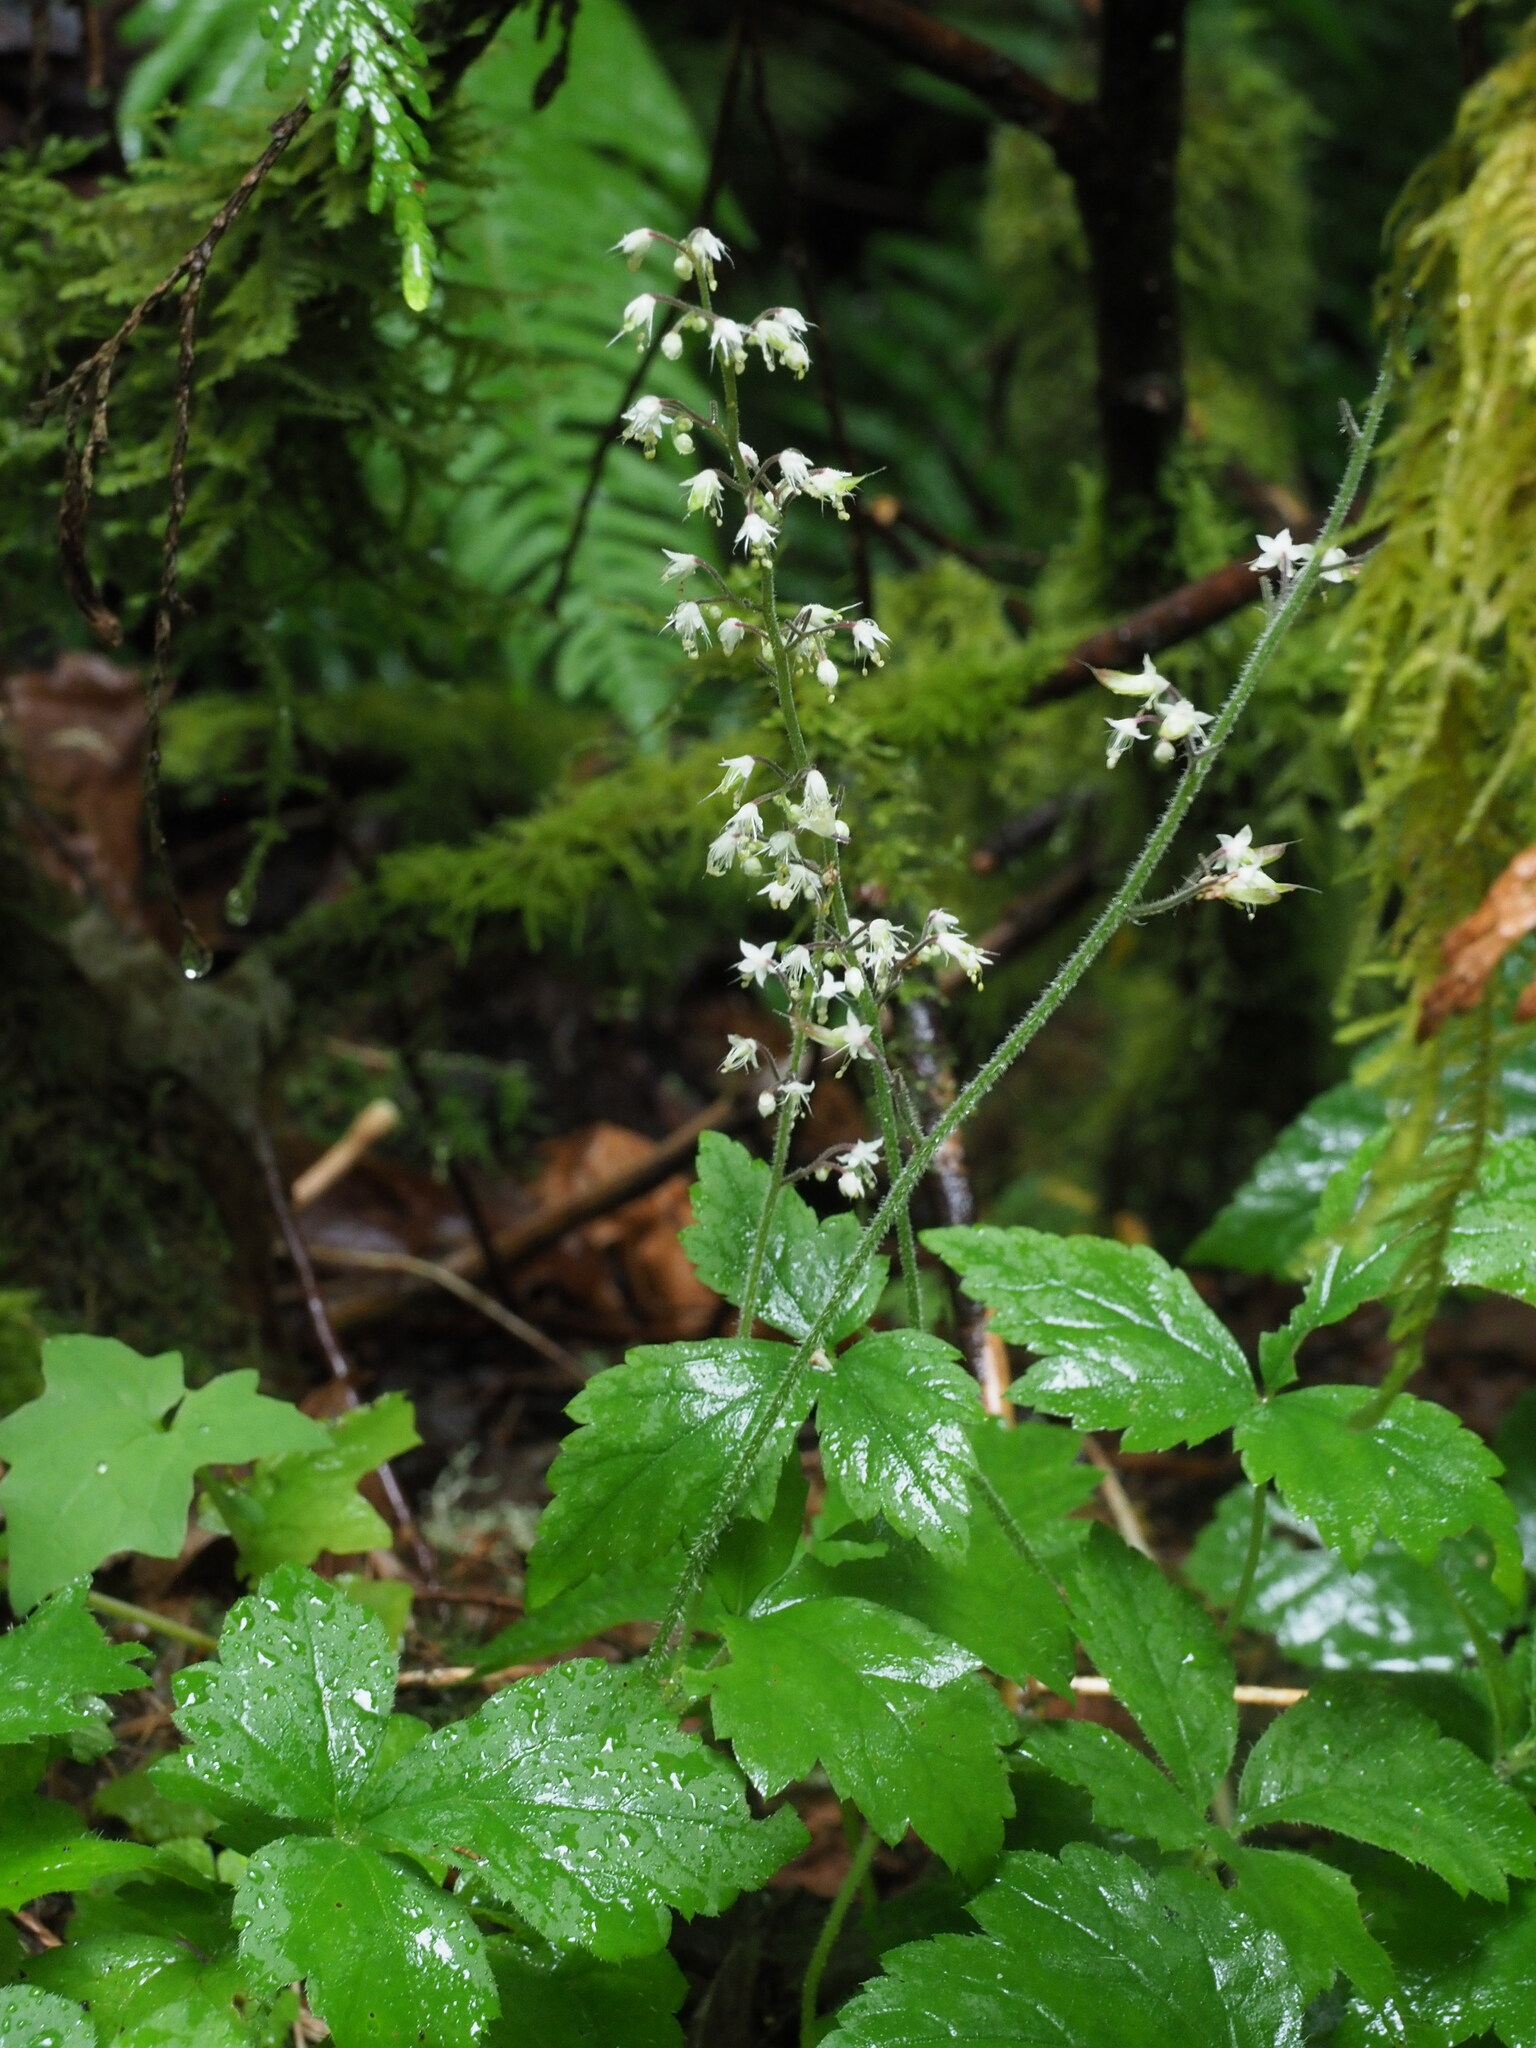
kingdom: Plantae
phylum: Tracheophyta
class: Magnoliopsida
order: Saxifragales
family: Saxifragaceae
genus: Tiarella
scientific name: Tiarella trifoliata
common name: Sugar-scoop
